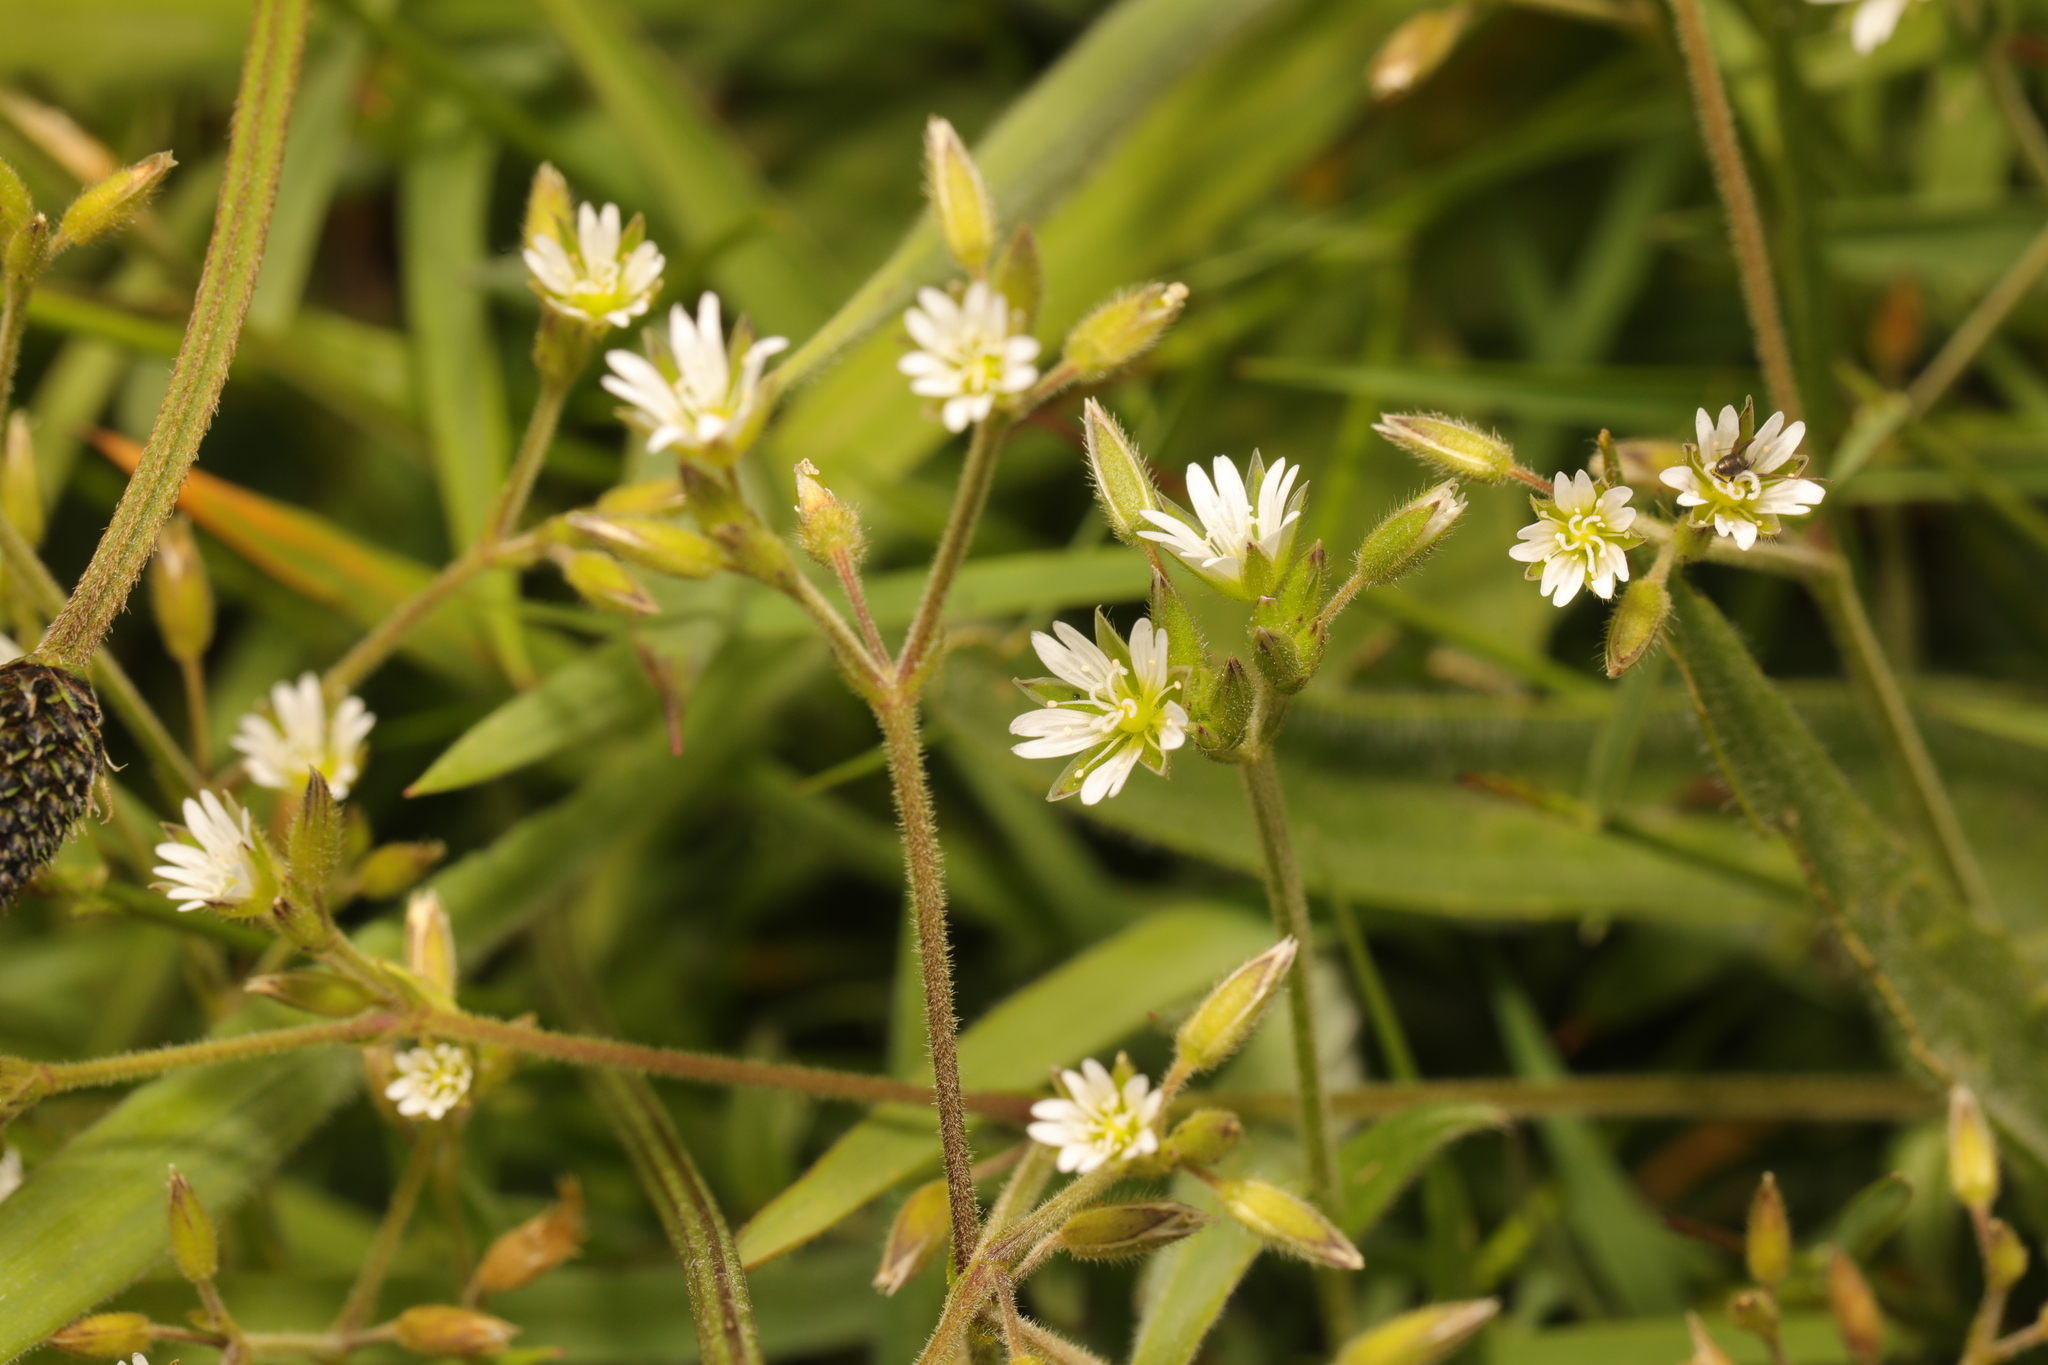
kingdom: Plantae
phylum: Tracheophyta
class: Magnoliopsida
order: Caryophyllales
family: Caryophyllaceae
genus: Cerastium
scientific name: Cerastium fontanum
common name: Common mouse-ear
